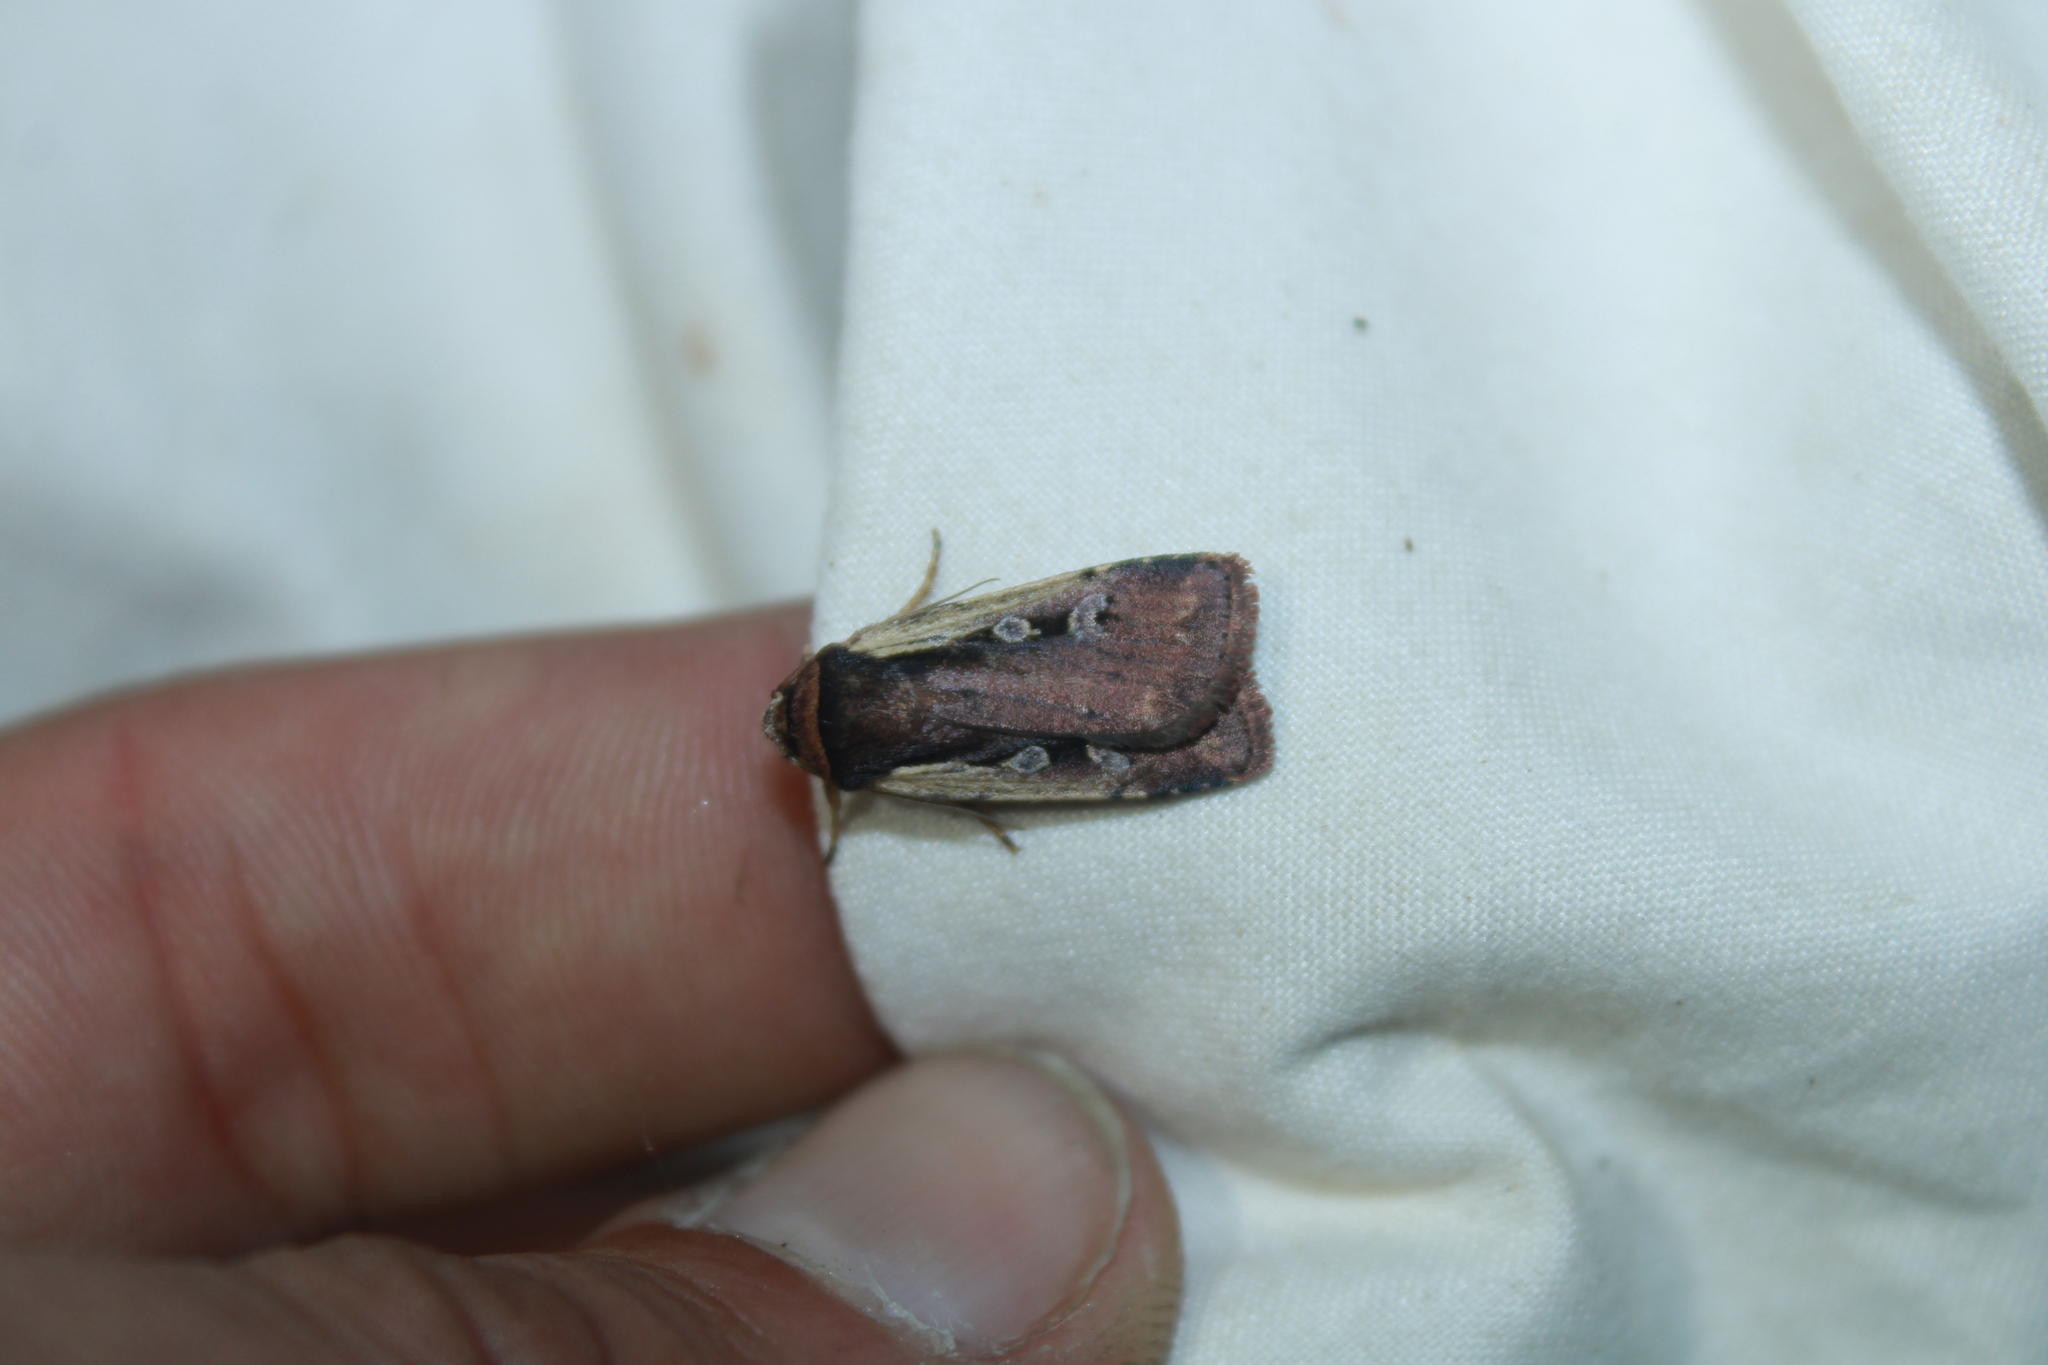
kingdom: Animalia
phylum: Arthropoda
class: Insecta
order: Lepidoptera
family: Noctuidae
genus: Ochropleura
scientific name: Ochropleura implecta
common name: Flame-shouldered dart
